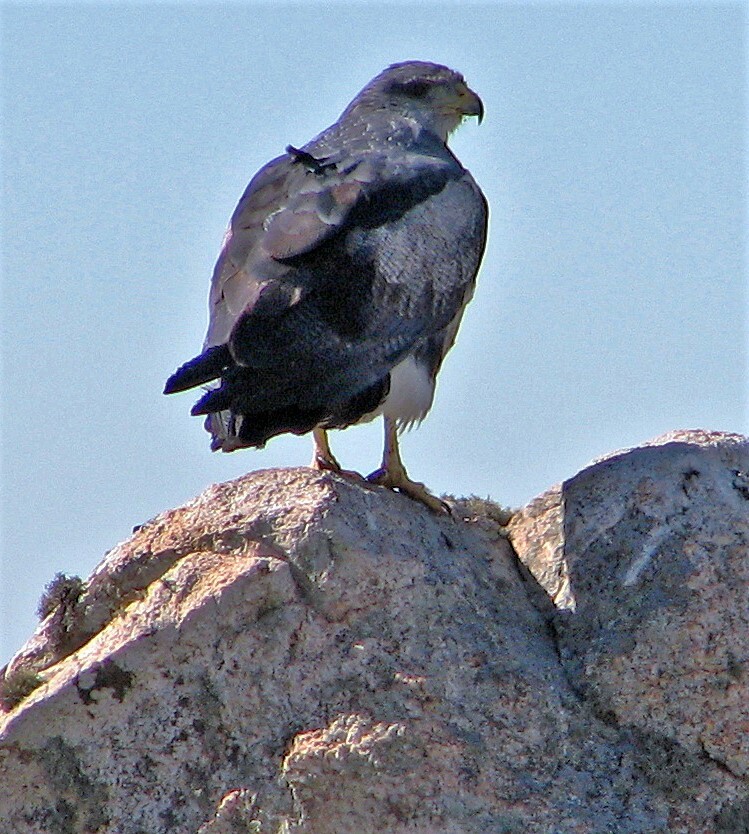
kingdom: Animalia
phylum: Chordata
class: Aves
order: Accipitriformes
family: Accipitridae
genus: Geranoaetus
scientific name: Geranoaetus melanoleucus
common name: Black-chested buzzard-eagle
